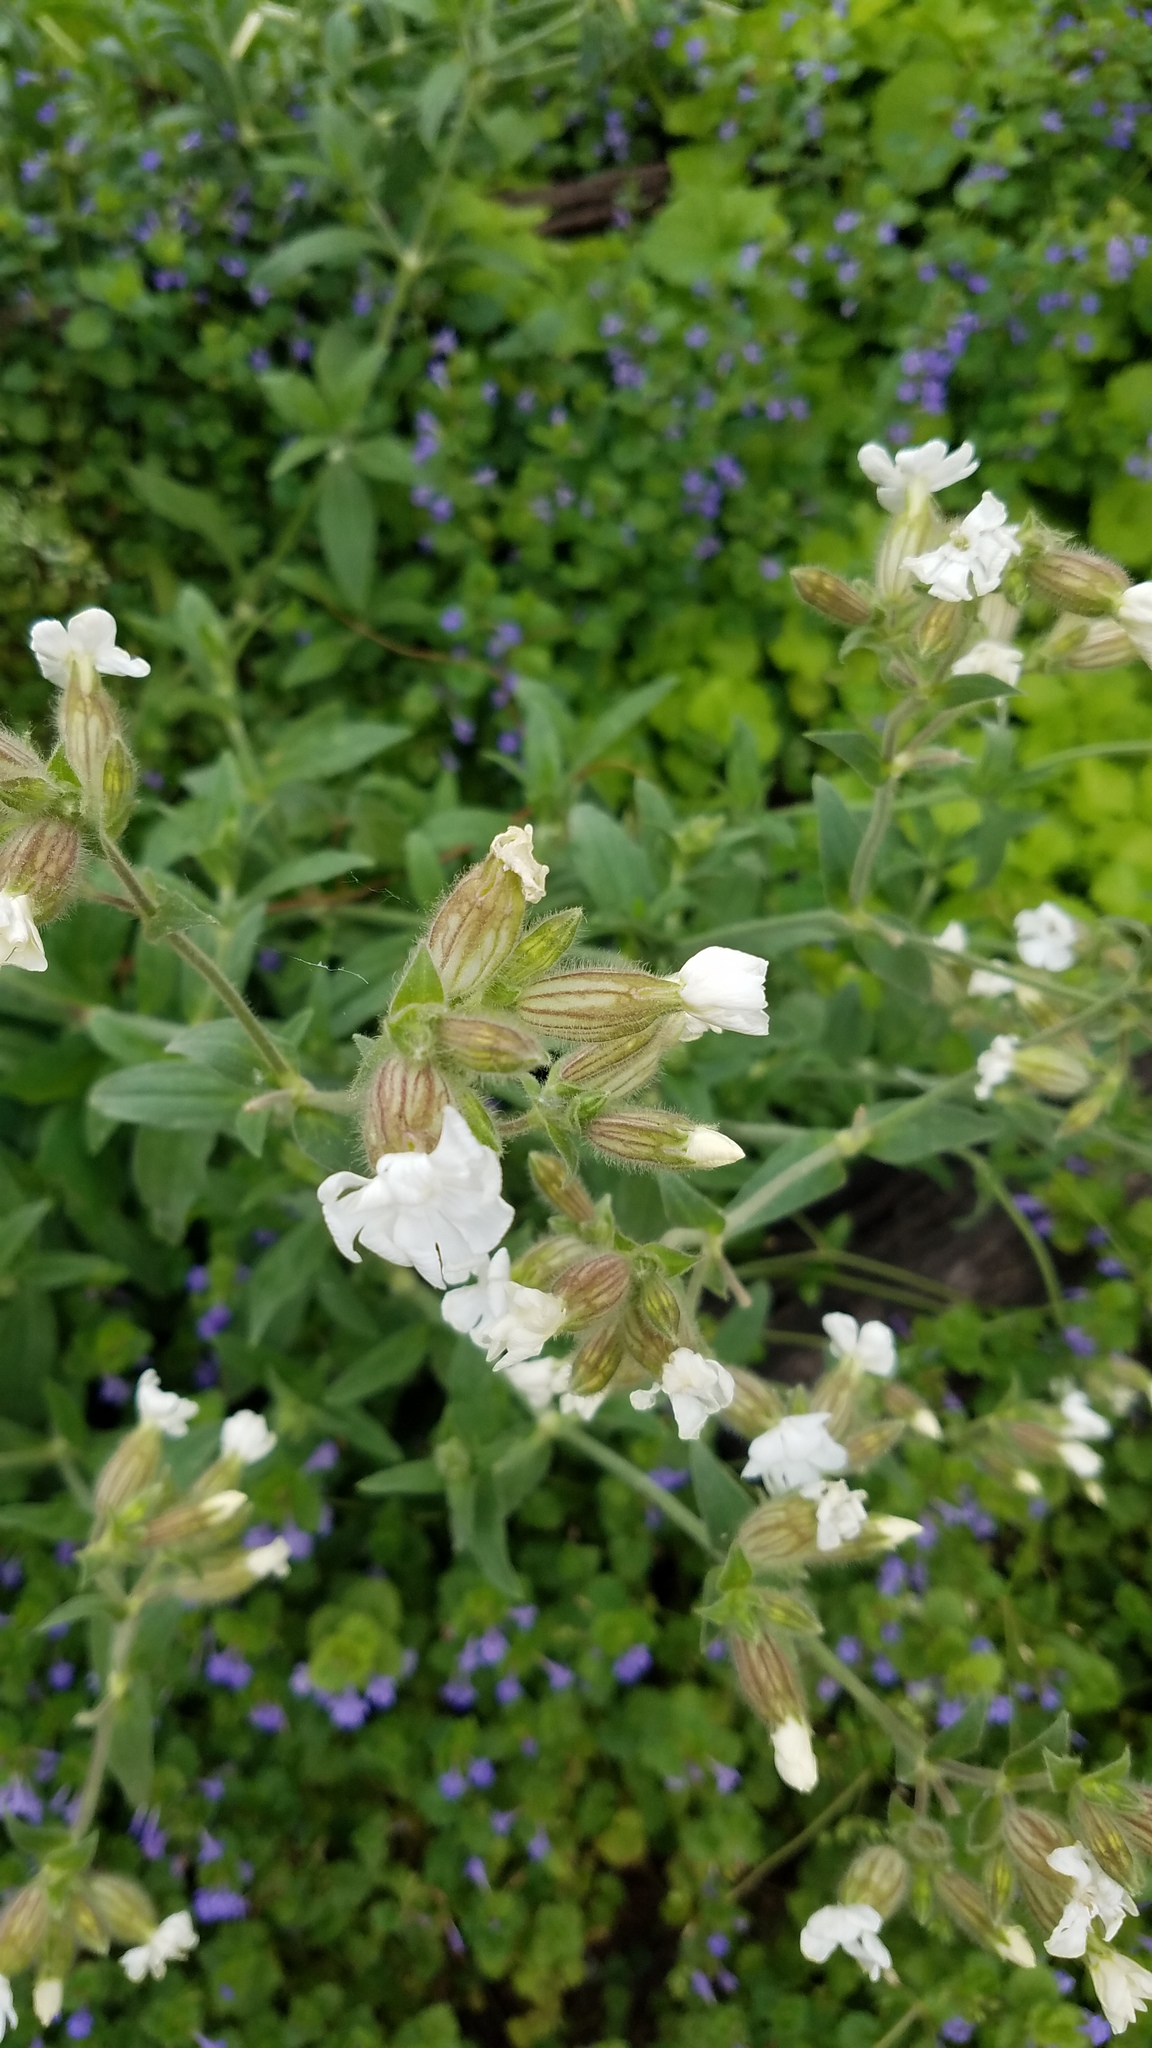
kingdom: Plantae
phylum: Tracheophyta
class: Magnoliopsida
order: Caryophyllales
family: Caryophyllaceae
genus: Silene
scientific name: Silene latifolia
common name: White campion
